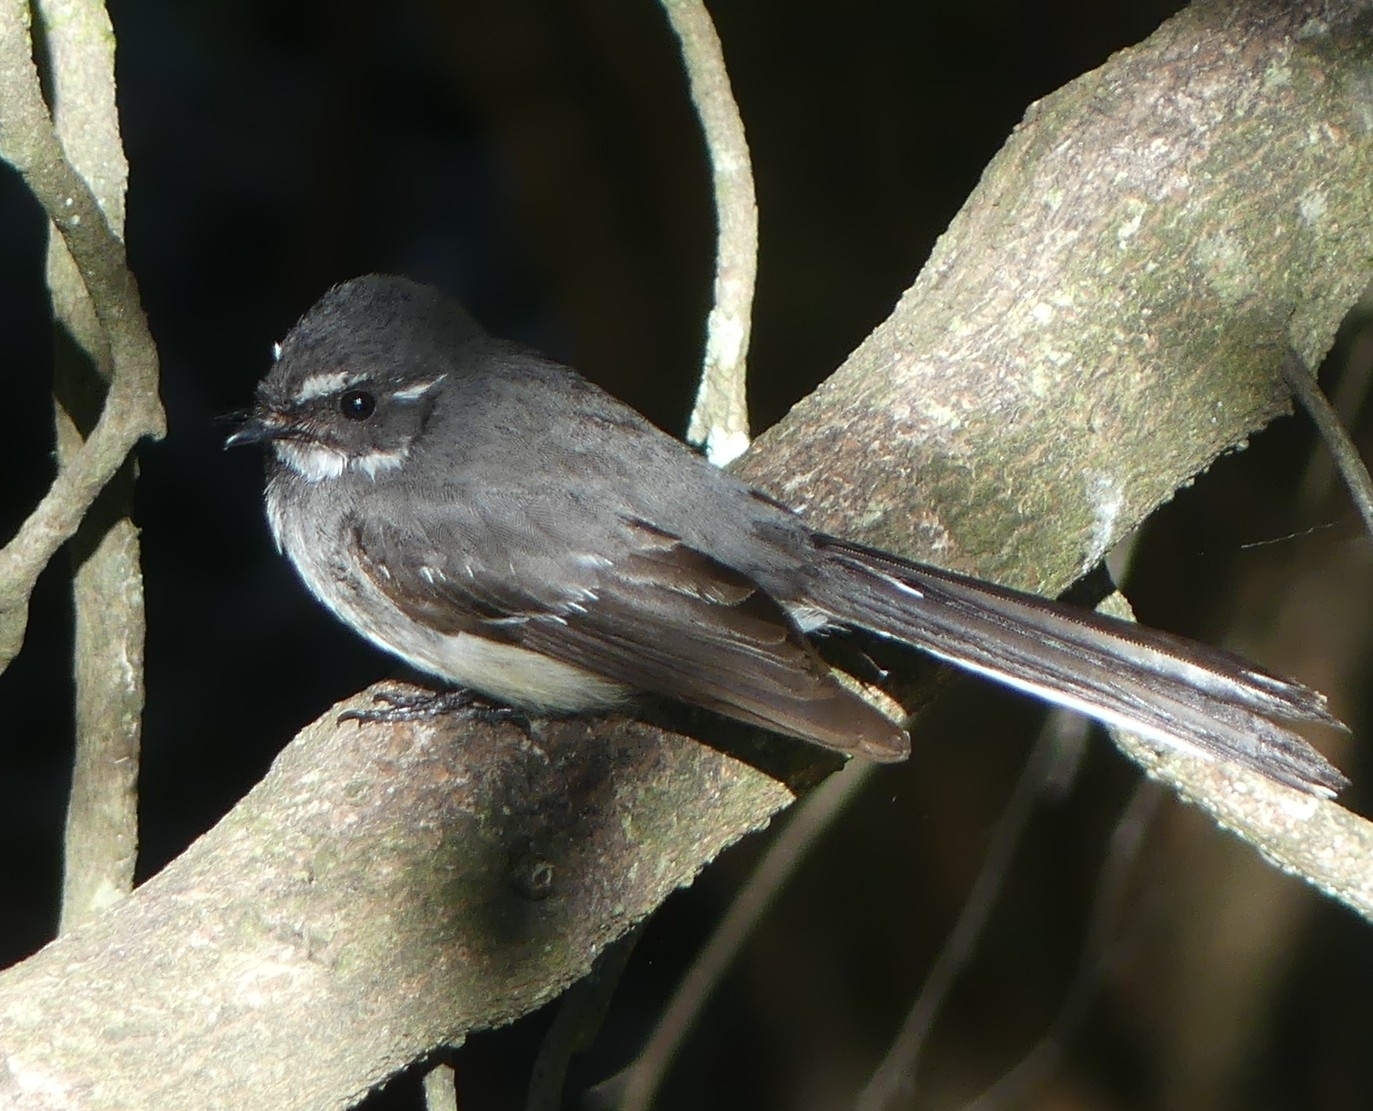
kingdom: Animalia
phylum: Chordata
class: Aves
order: Passeriformes
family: Rhipiduridae
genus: Rhipidura
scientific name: Rhipidura albiscapa
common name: Grey fantail
